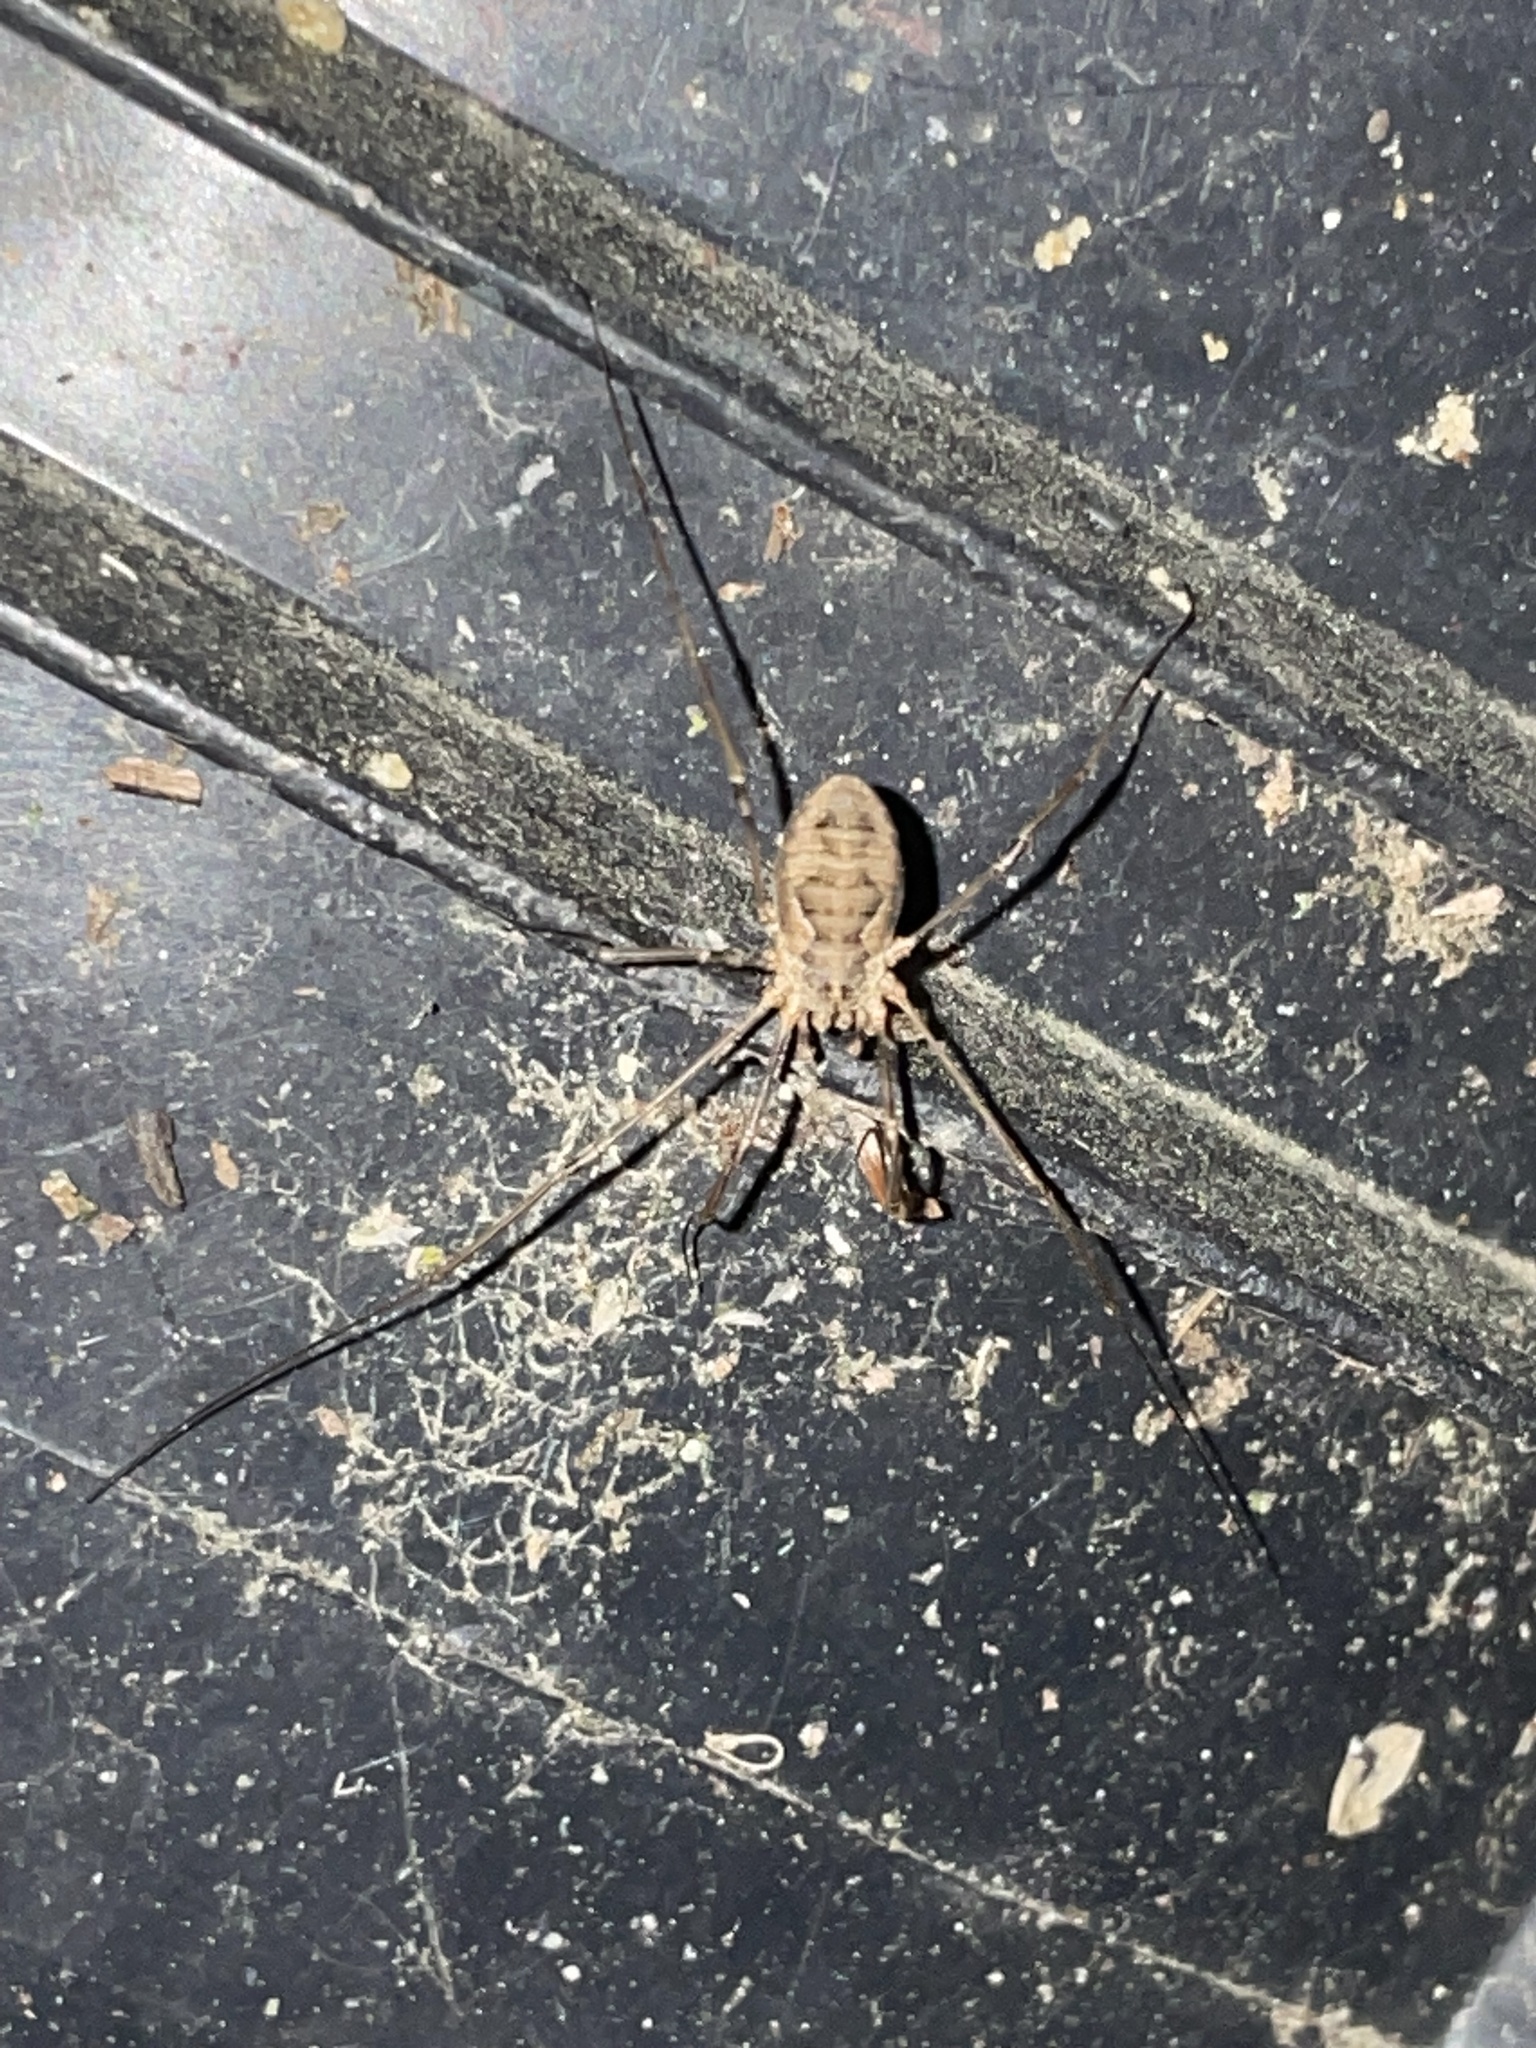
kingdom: Animalia
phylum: Arthropoda
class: Arachnida
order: Opiliones
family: Phalangiidae
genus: Phalangium
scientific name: Phalangium opilio
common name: Daddy longleg
